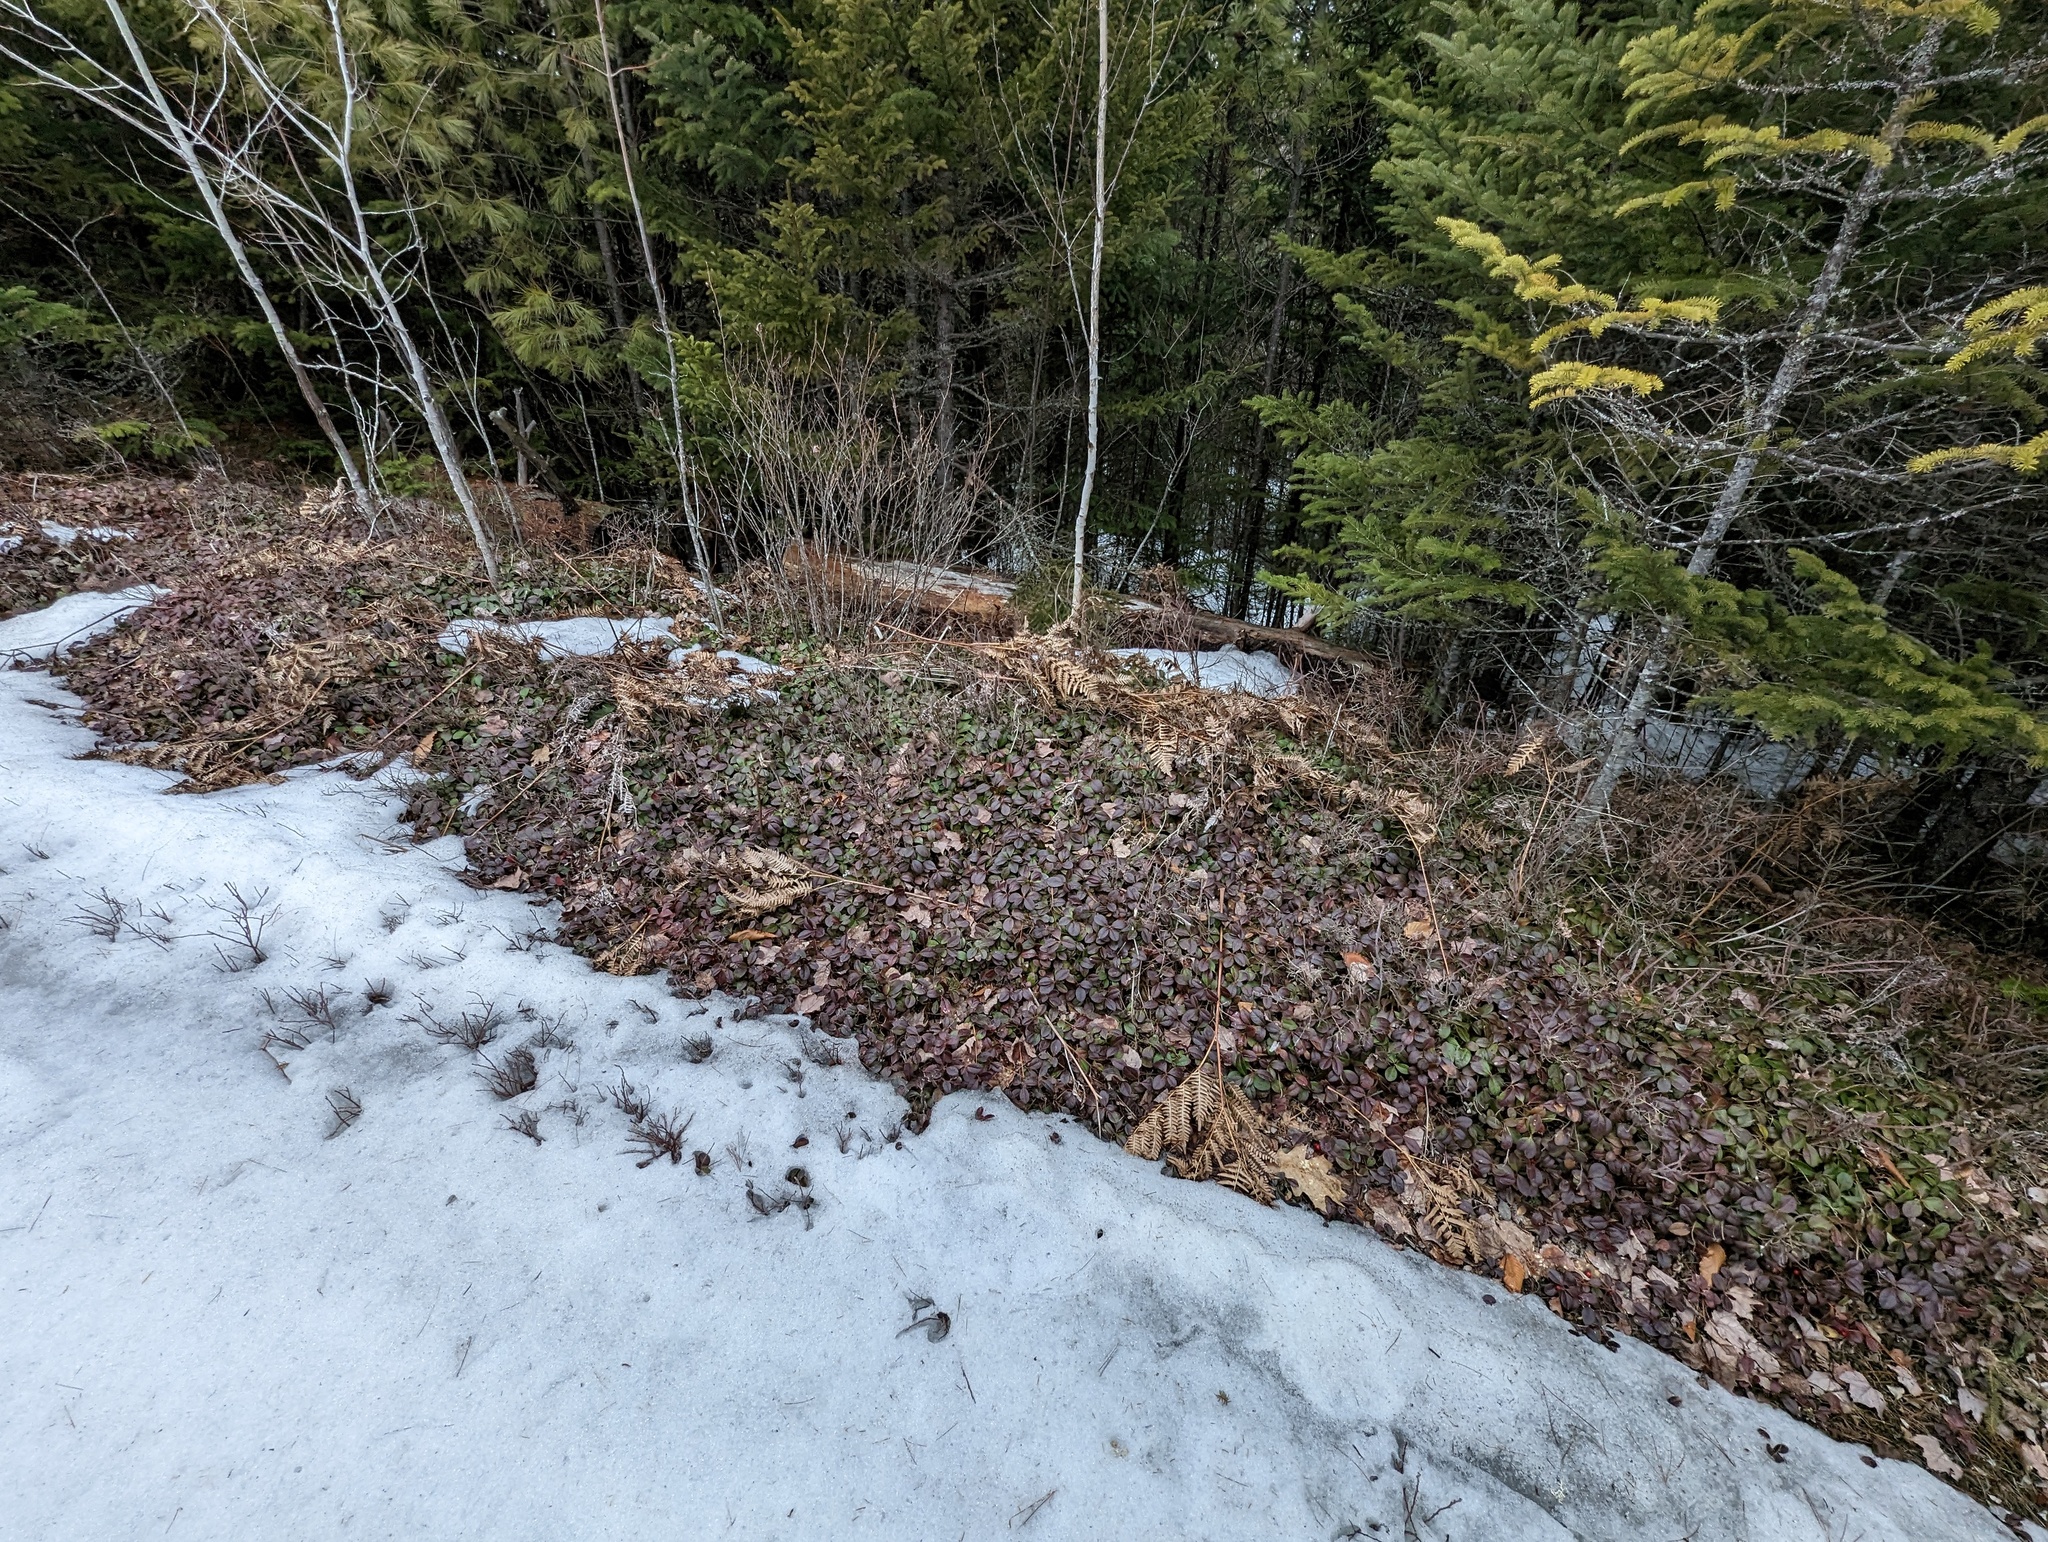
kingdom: Plantae
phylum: Tracheophyta
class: Magnoliopsida
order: Ericales
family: Ericaceae
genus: Gaultheria
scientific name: Gaultheria procumbens
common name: Checkerberry
